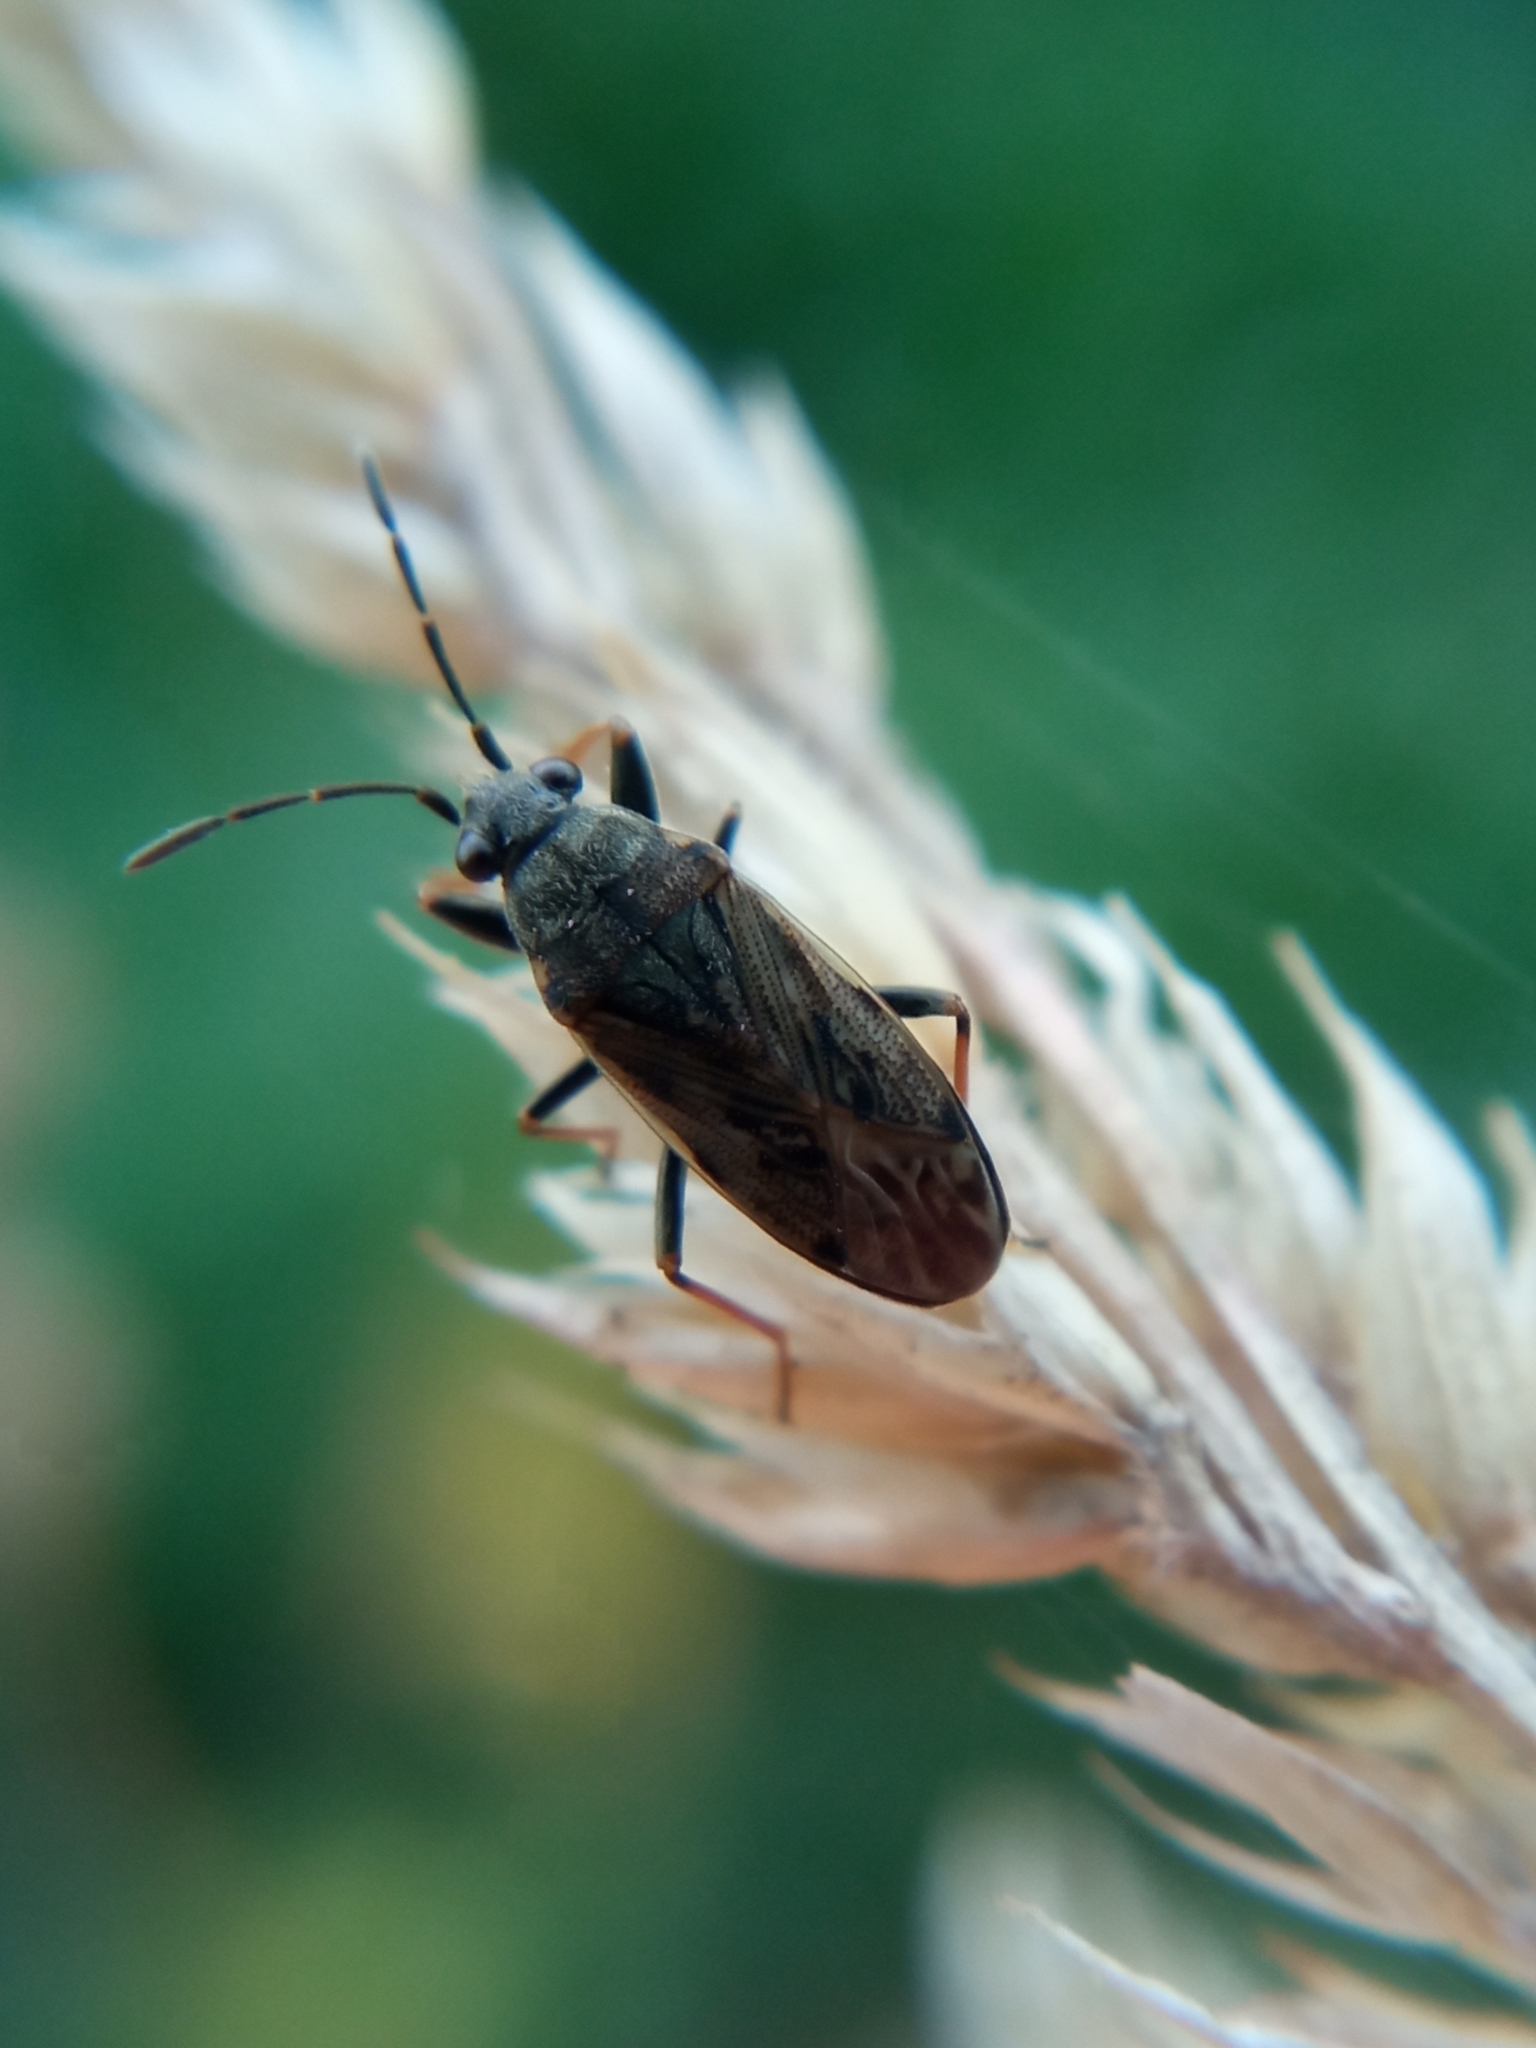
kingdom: Animalia
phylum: Arthropoda
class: Insecta
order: Hemiptera
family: Rhyparochromidae
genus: Peritrechus
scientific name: Peritrechus gracilicornis
